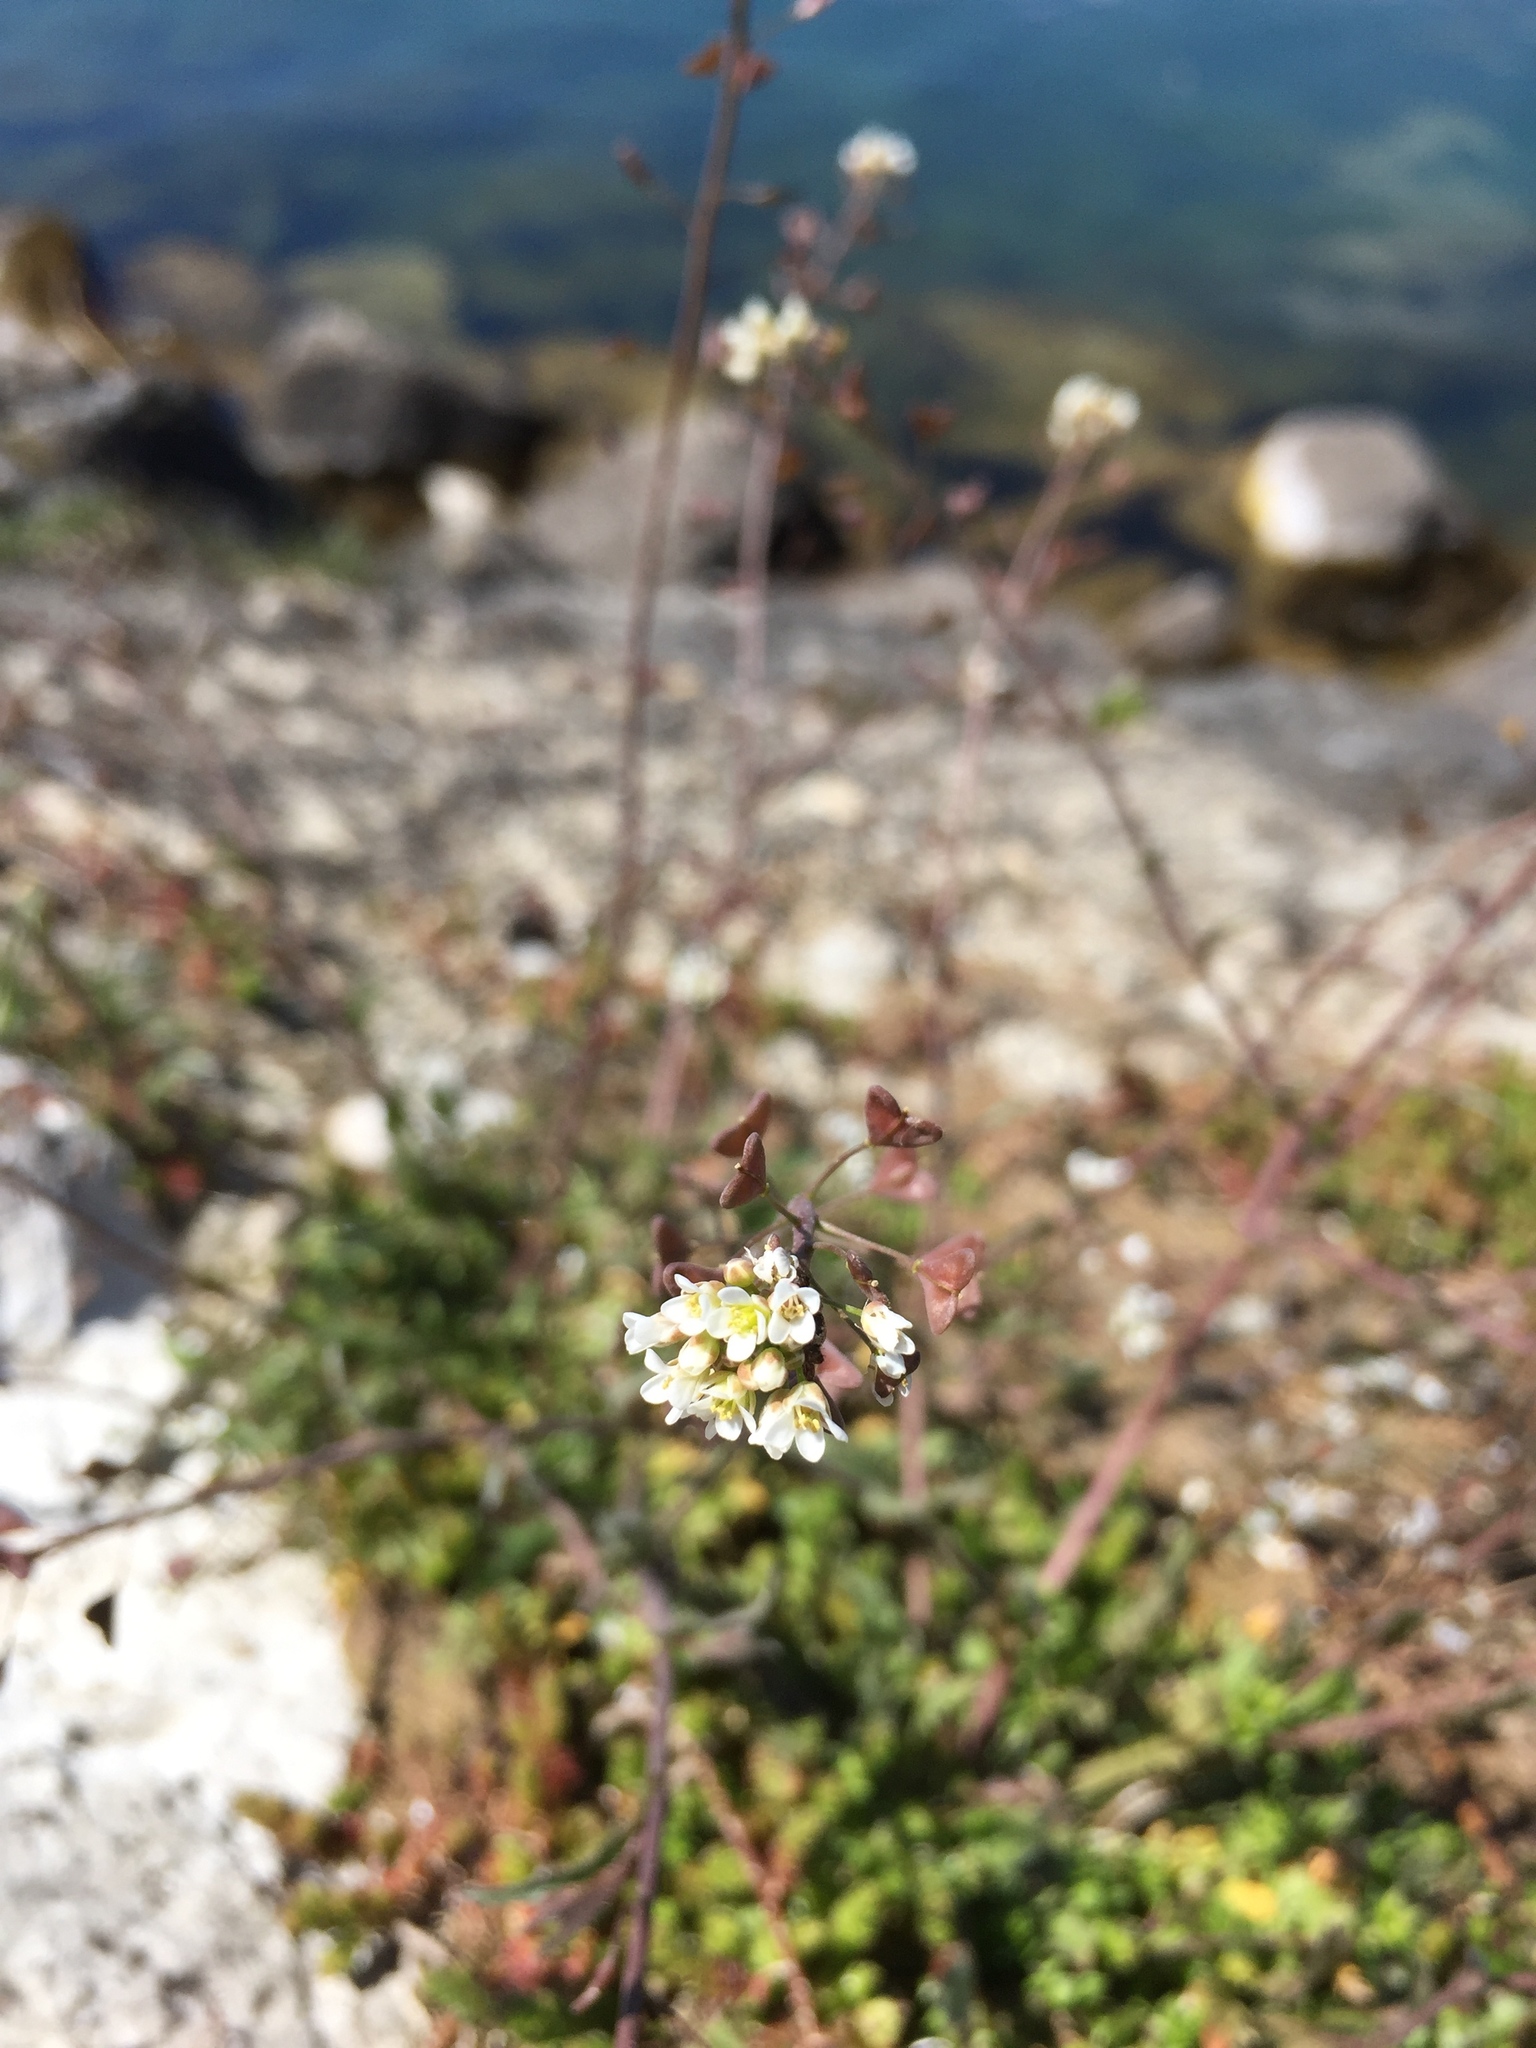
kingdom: Plantae
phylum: Tracheophyta
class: Magnoliopsida
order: Brassicales
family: Brassicaceae
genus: Capsella
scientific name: Capsella bursa-pastoris
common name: Shepherd's purse
